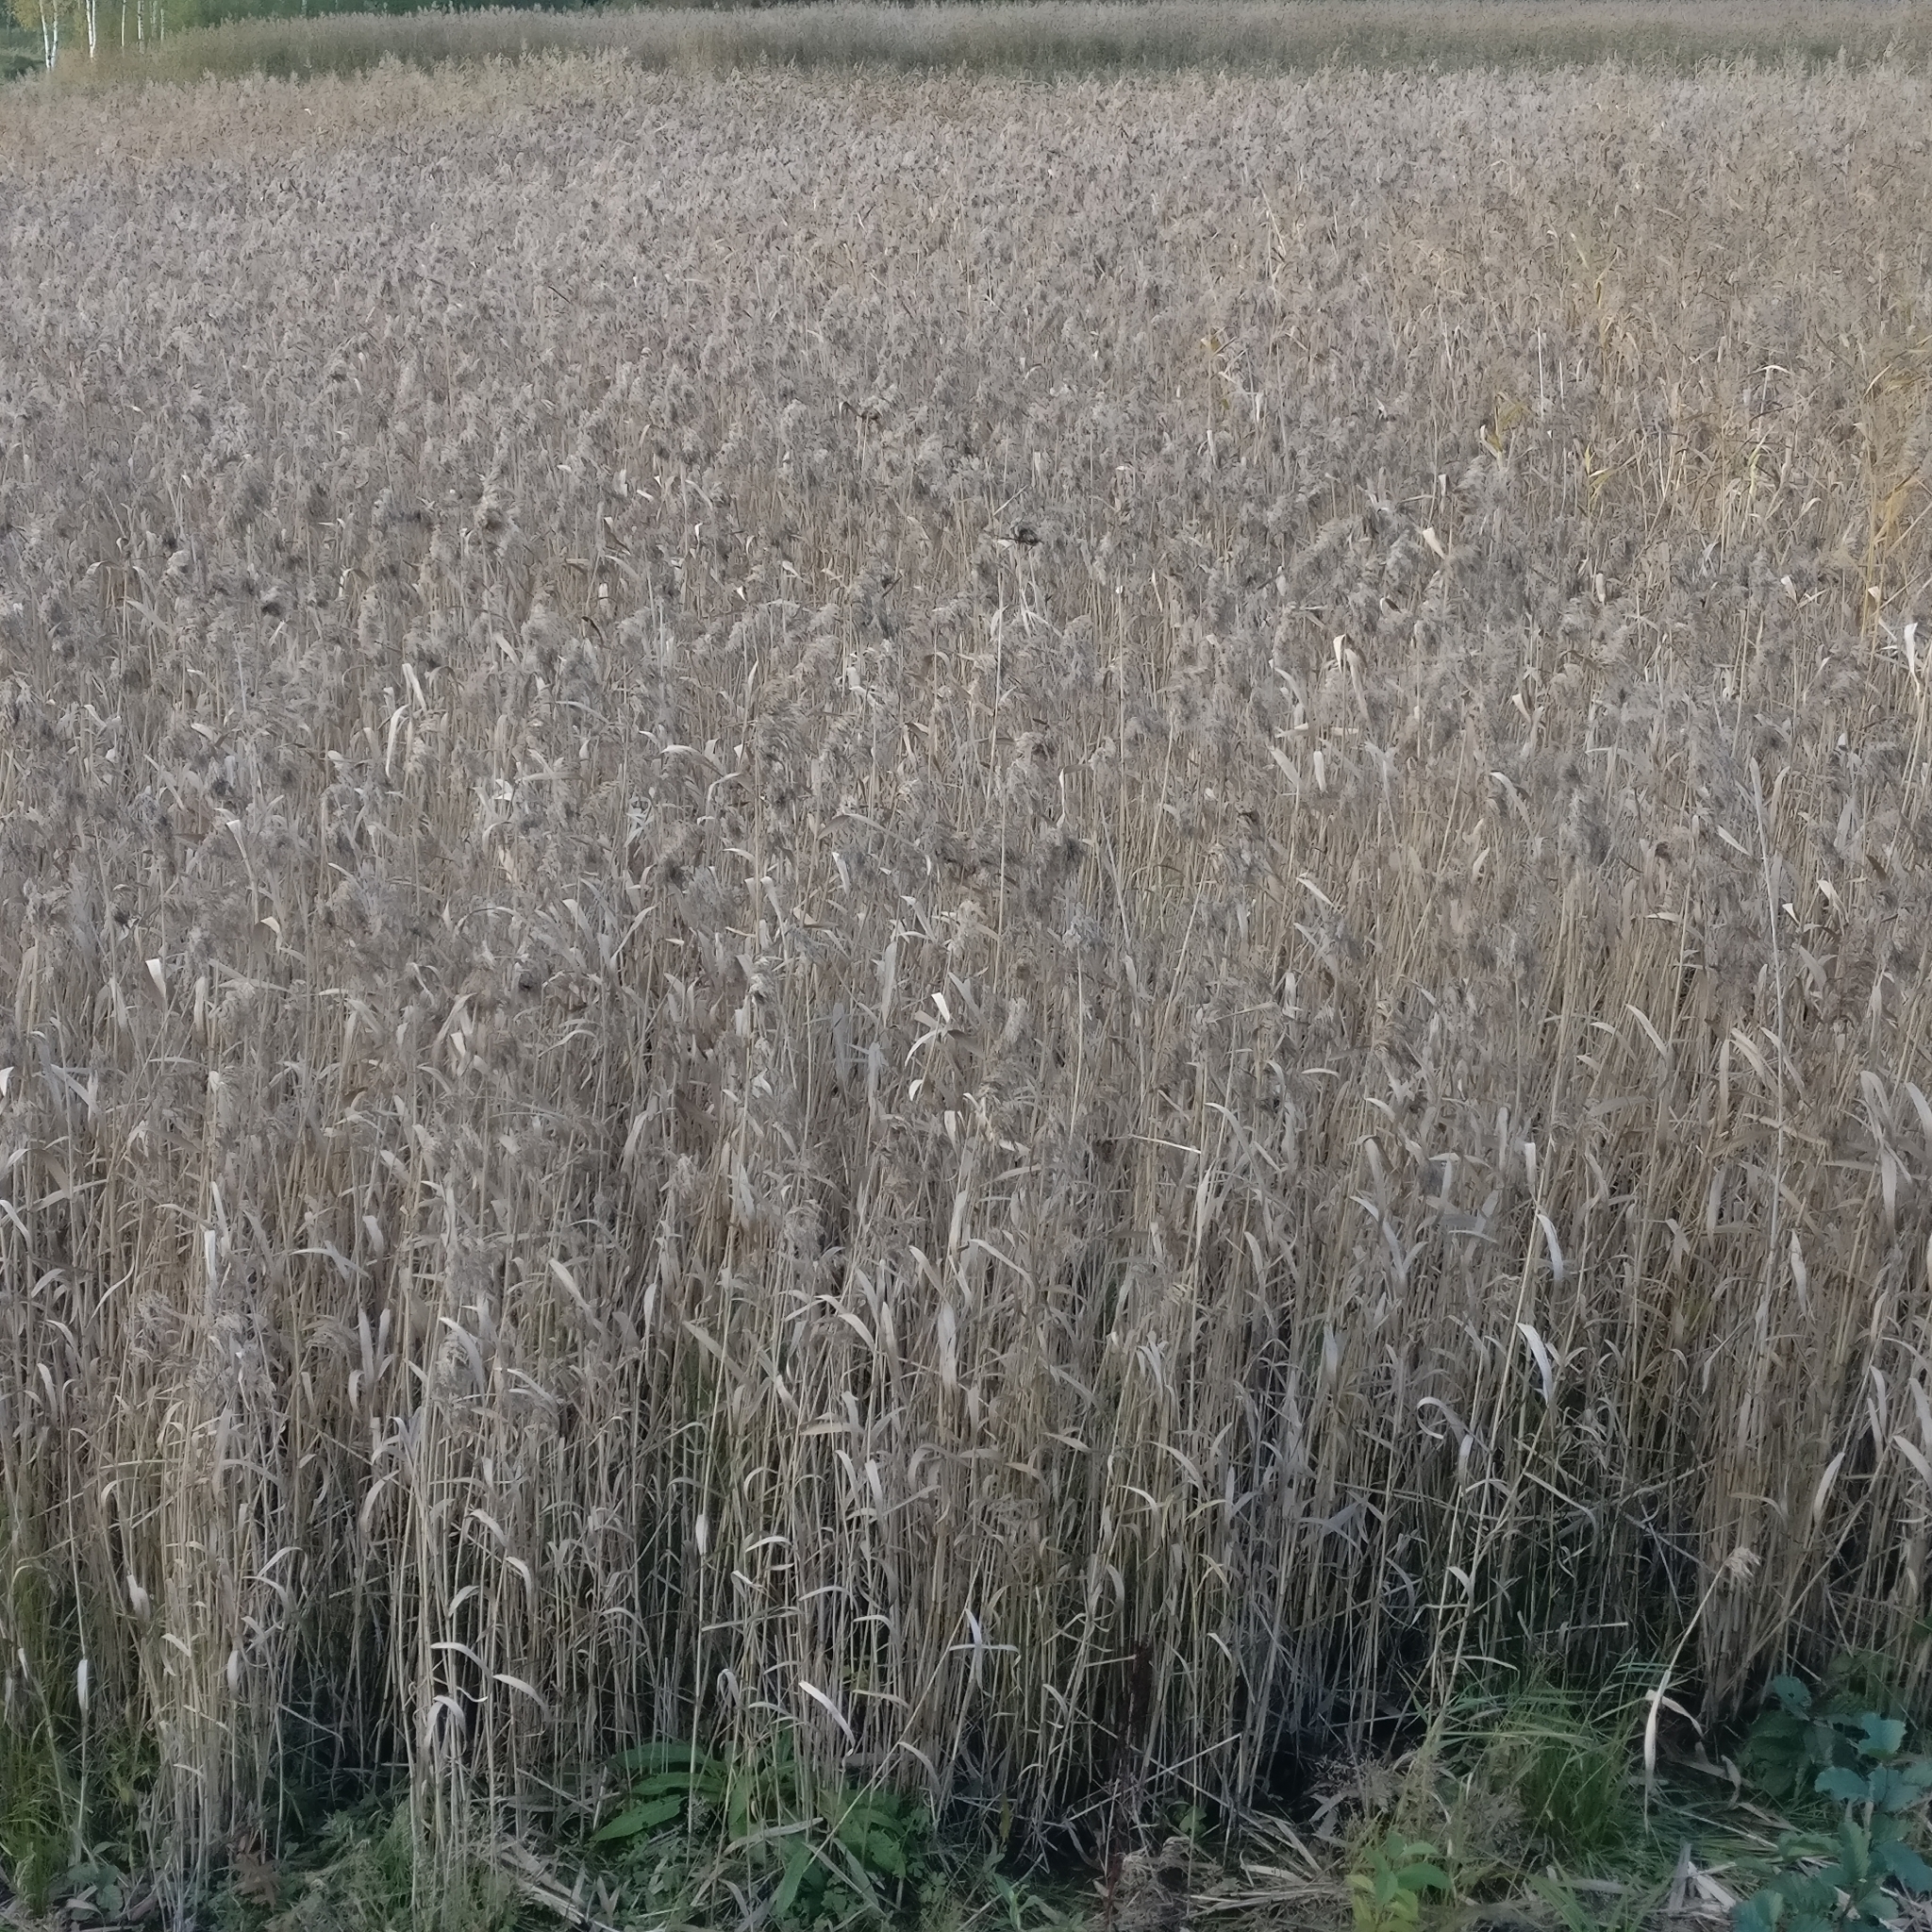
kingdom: Plantae
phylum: Tracheophyta
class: Liliopsida
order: Poales
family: Poaceae
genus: Phragmites
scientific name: Phragmites australis
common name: Common reed
